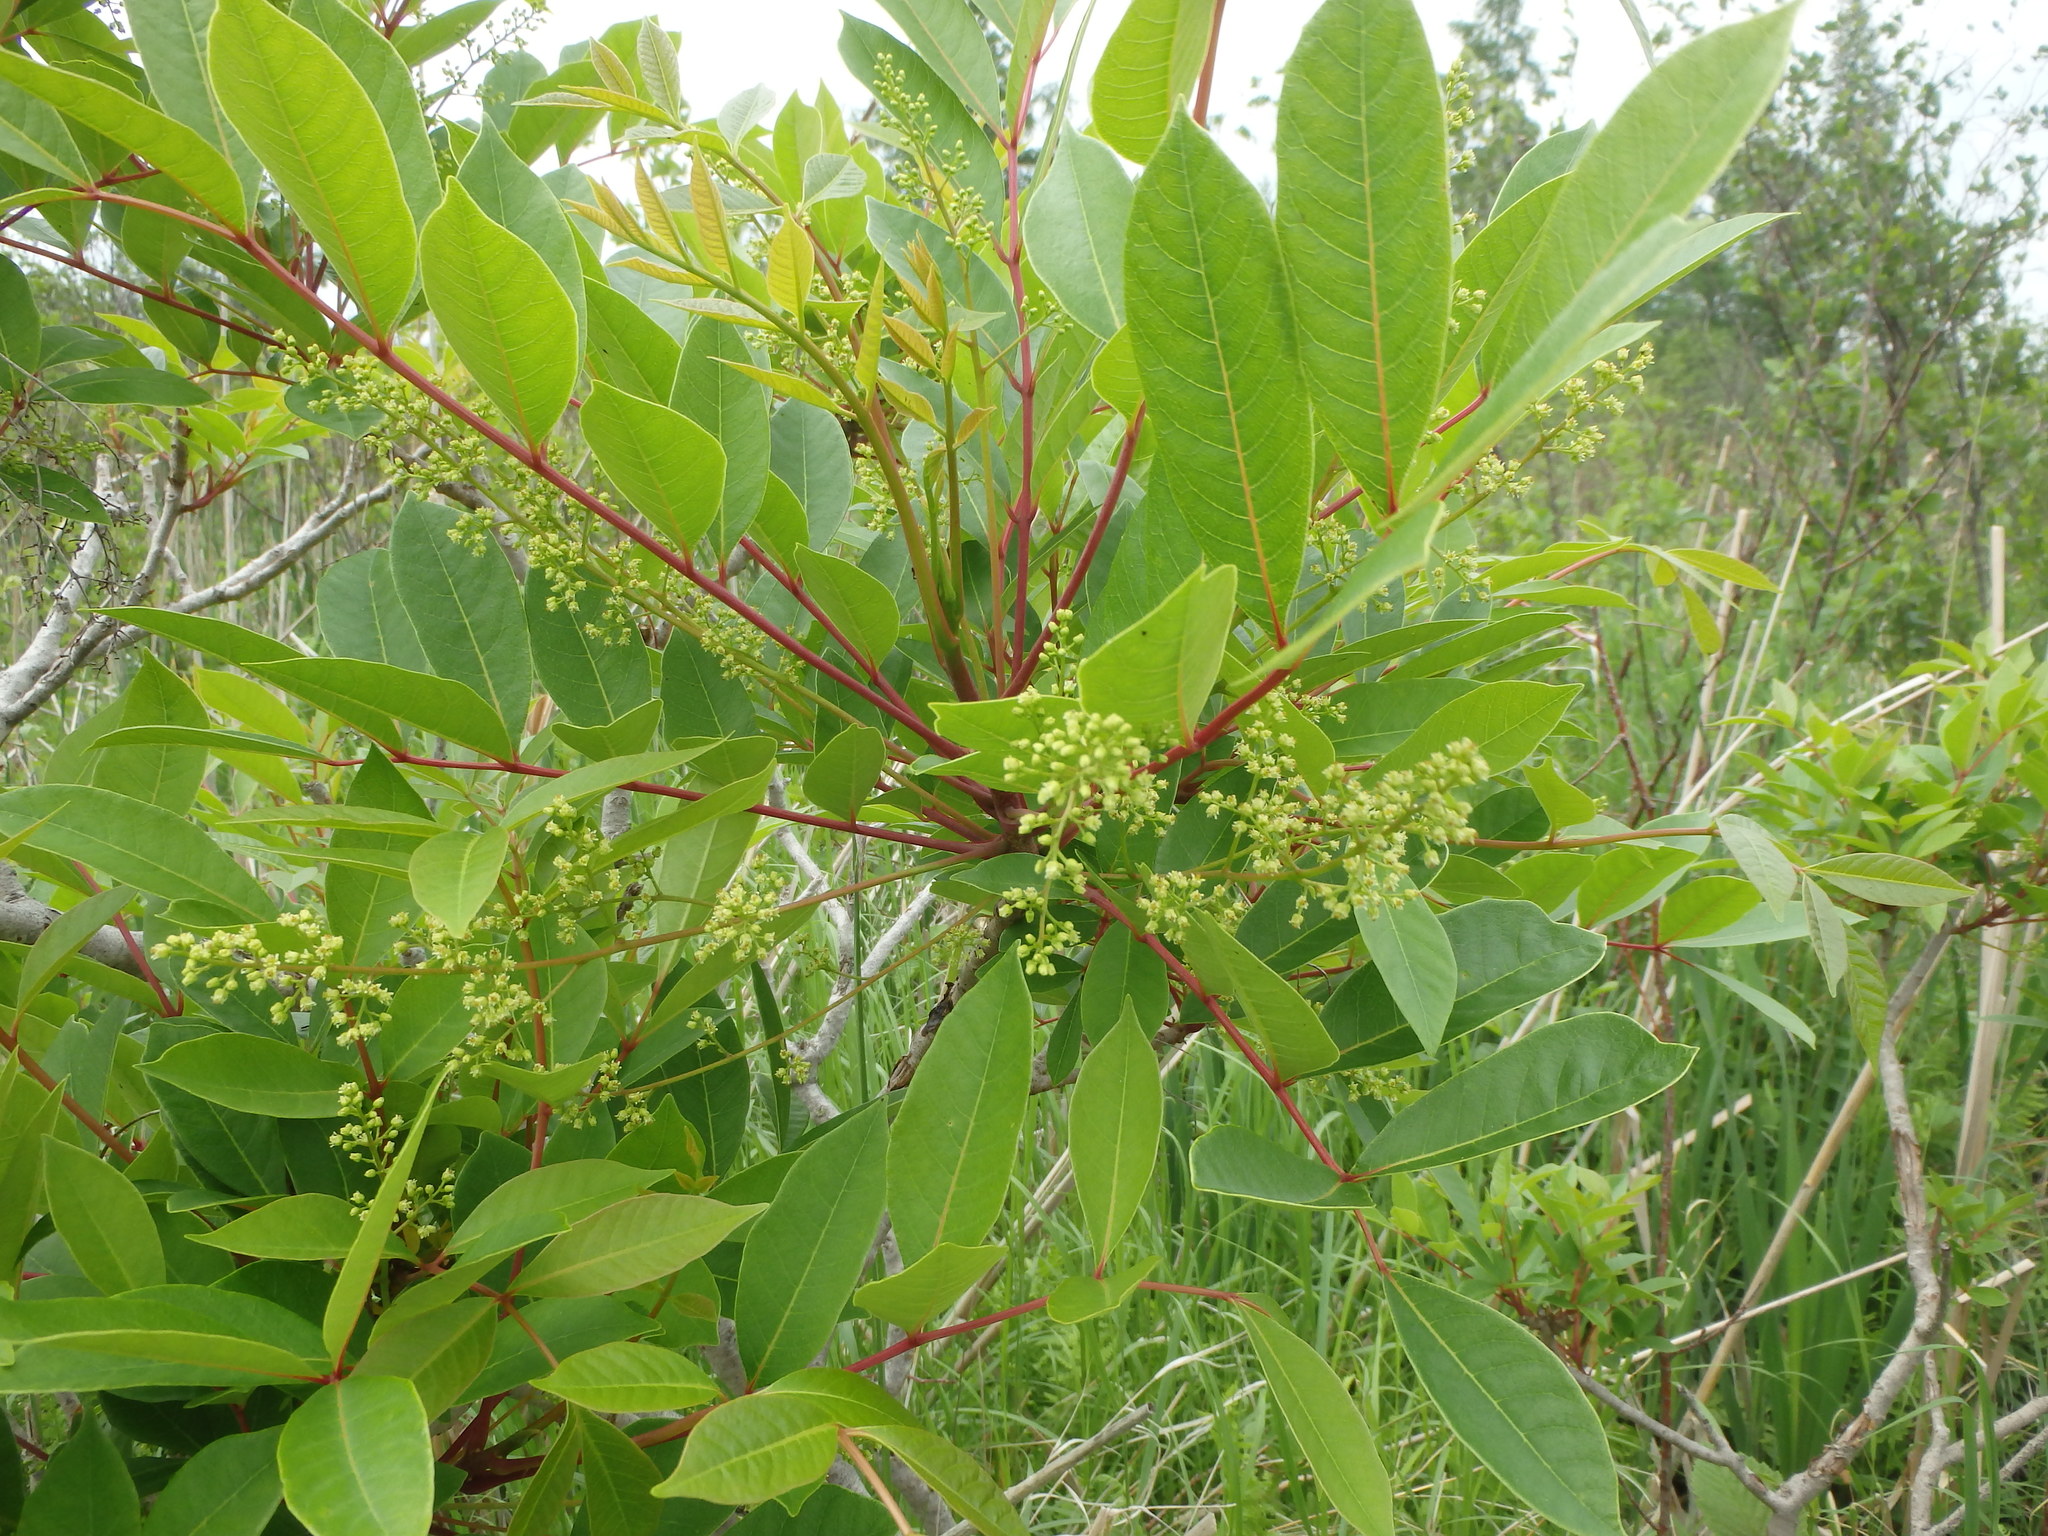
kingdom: Plantae
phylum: Tracheophyta
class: Magnoliopsida
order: Sapindales
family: Anacardiaceae
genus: Toxicodendron
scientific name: Toxicodendron vernix
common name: Poison sumac
